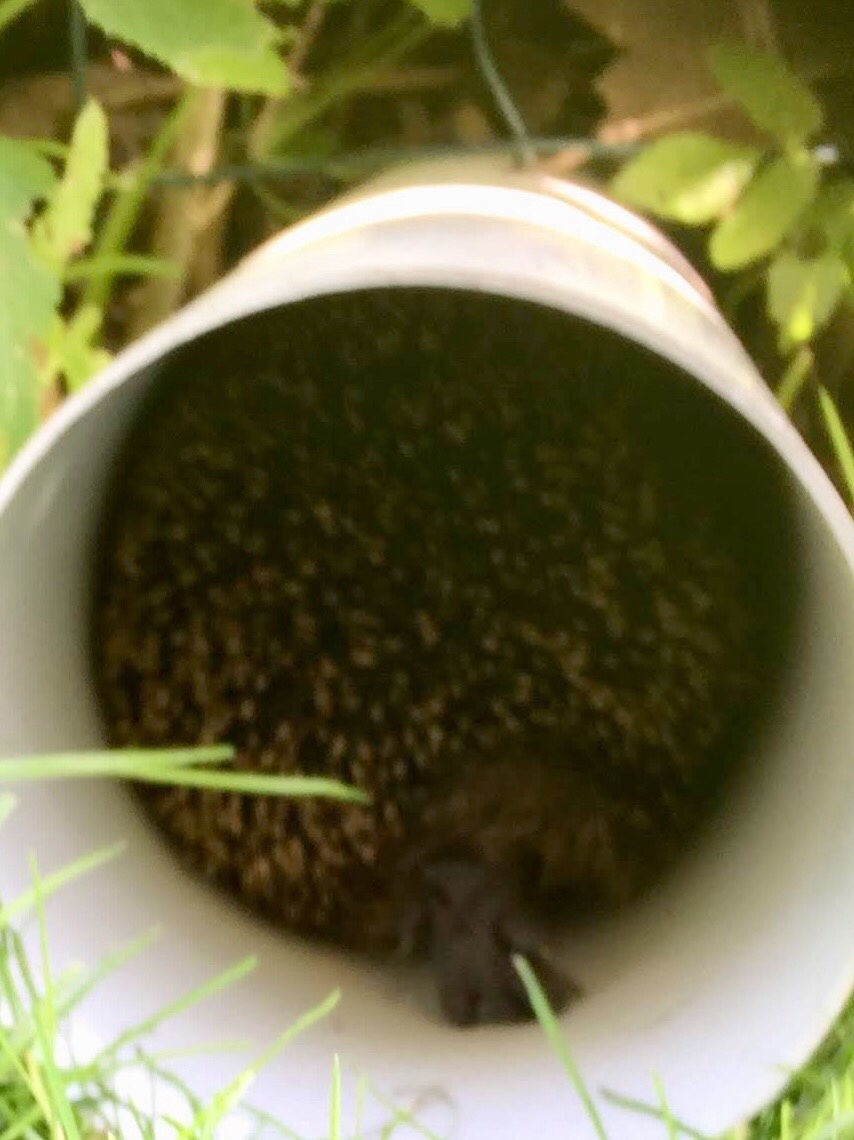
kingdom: Animalia
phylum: Chordata
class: Mammalia
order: Erinaceomorpha
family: Erinaceidae
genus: Erinaceus
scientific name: Erinaceus europaeus
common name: West european hedgehog
